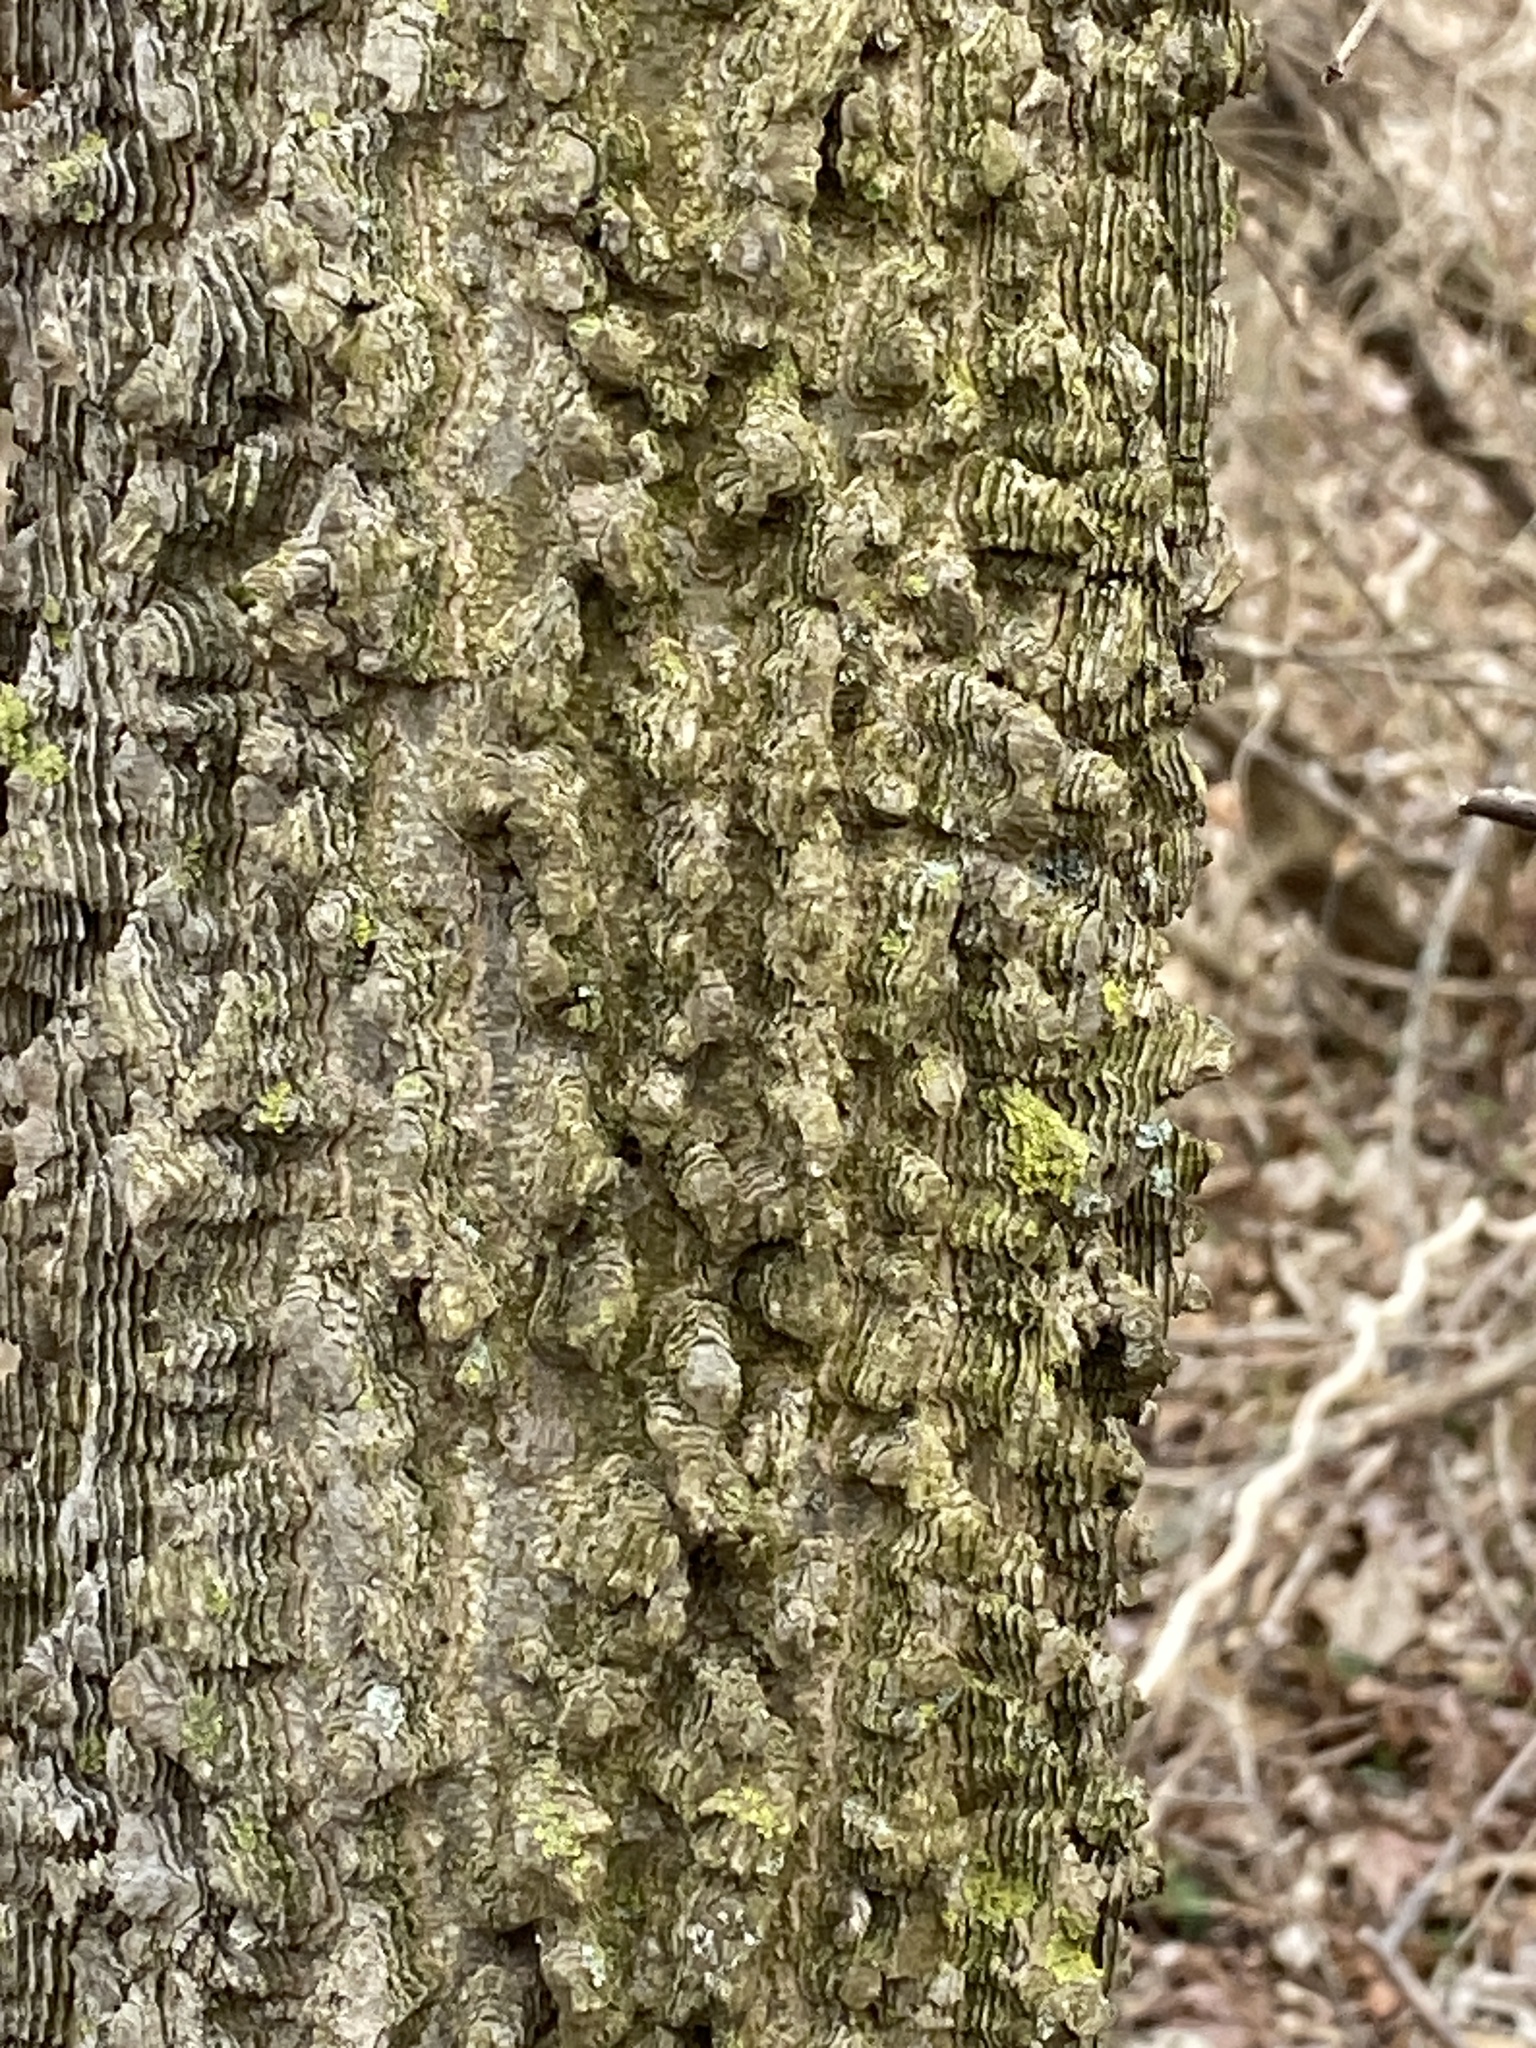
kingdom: Plantae
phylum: Tracheophyta
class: Magnoliopsida
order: Rosales
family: Cannabaceae
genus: Celtis
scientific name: Celtis occidentalis
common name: Common hackberry
